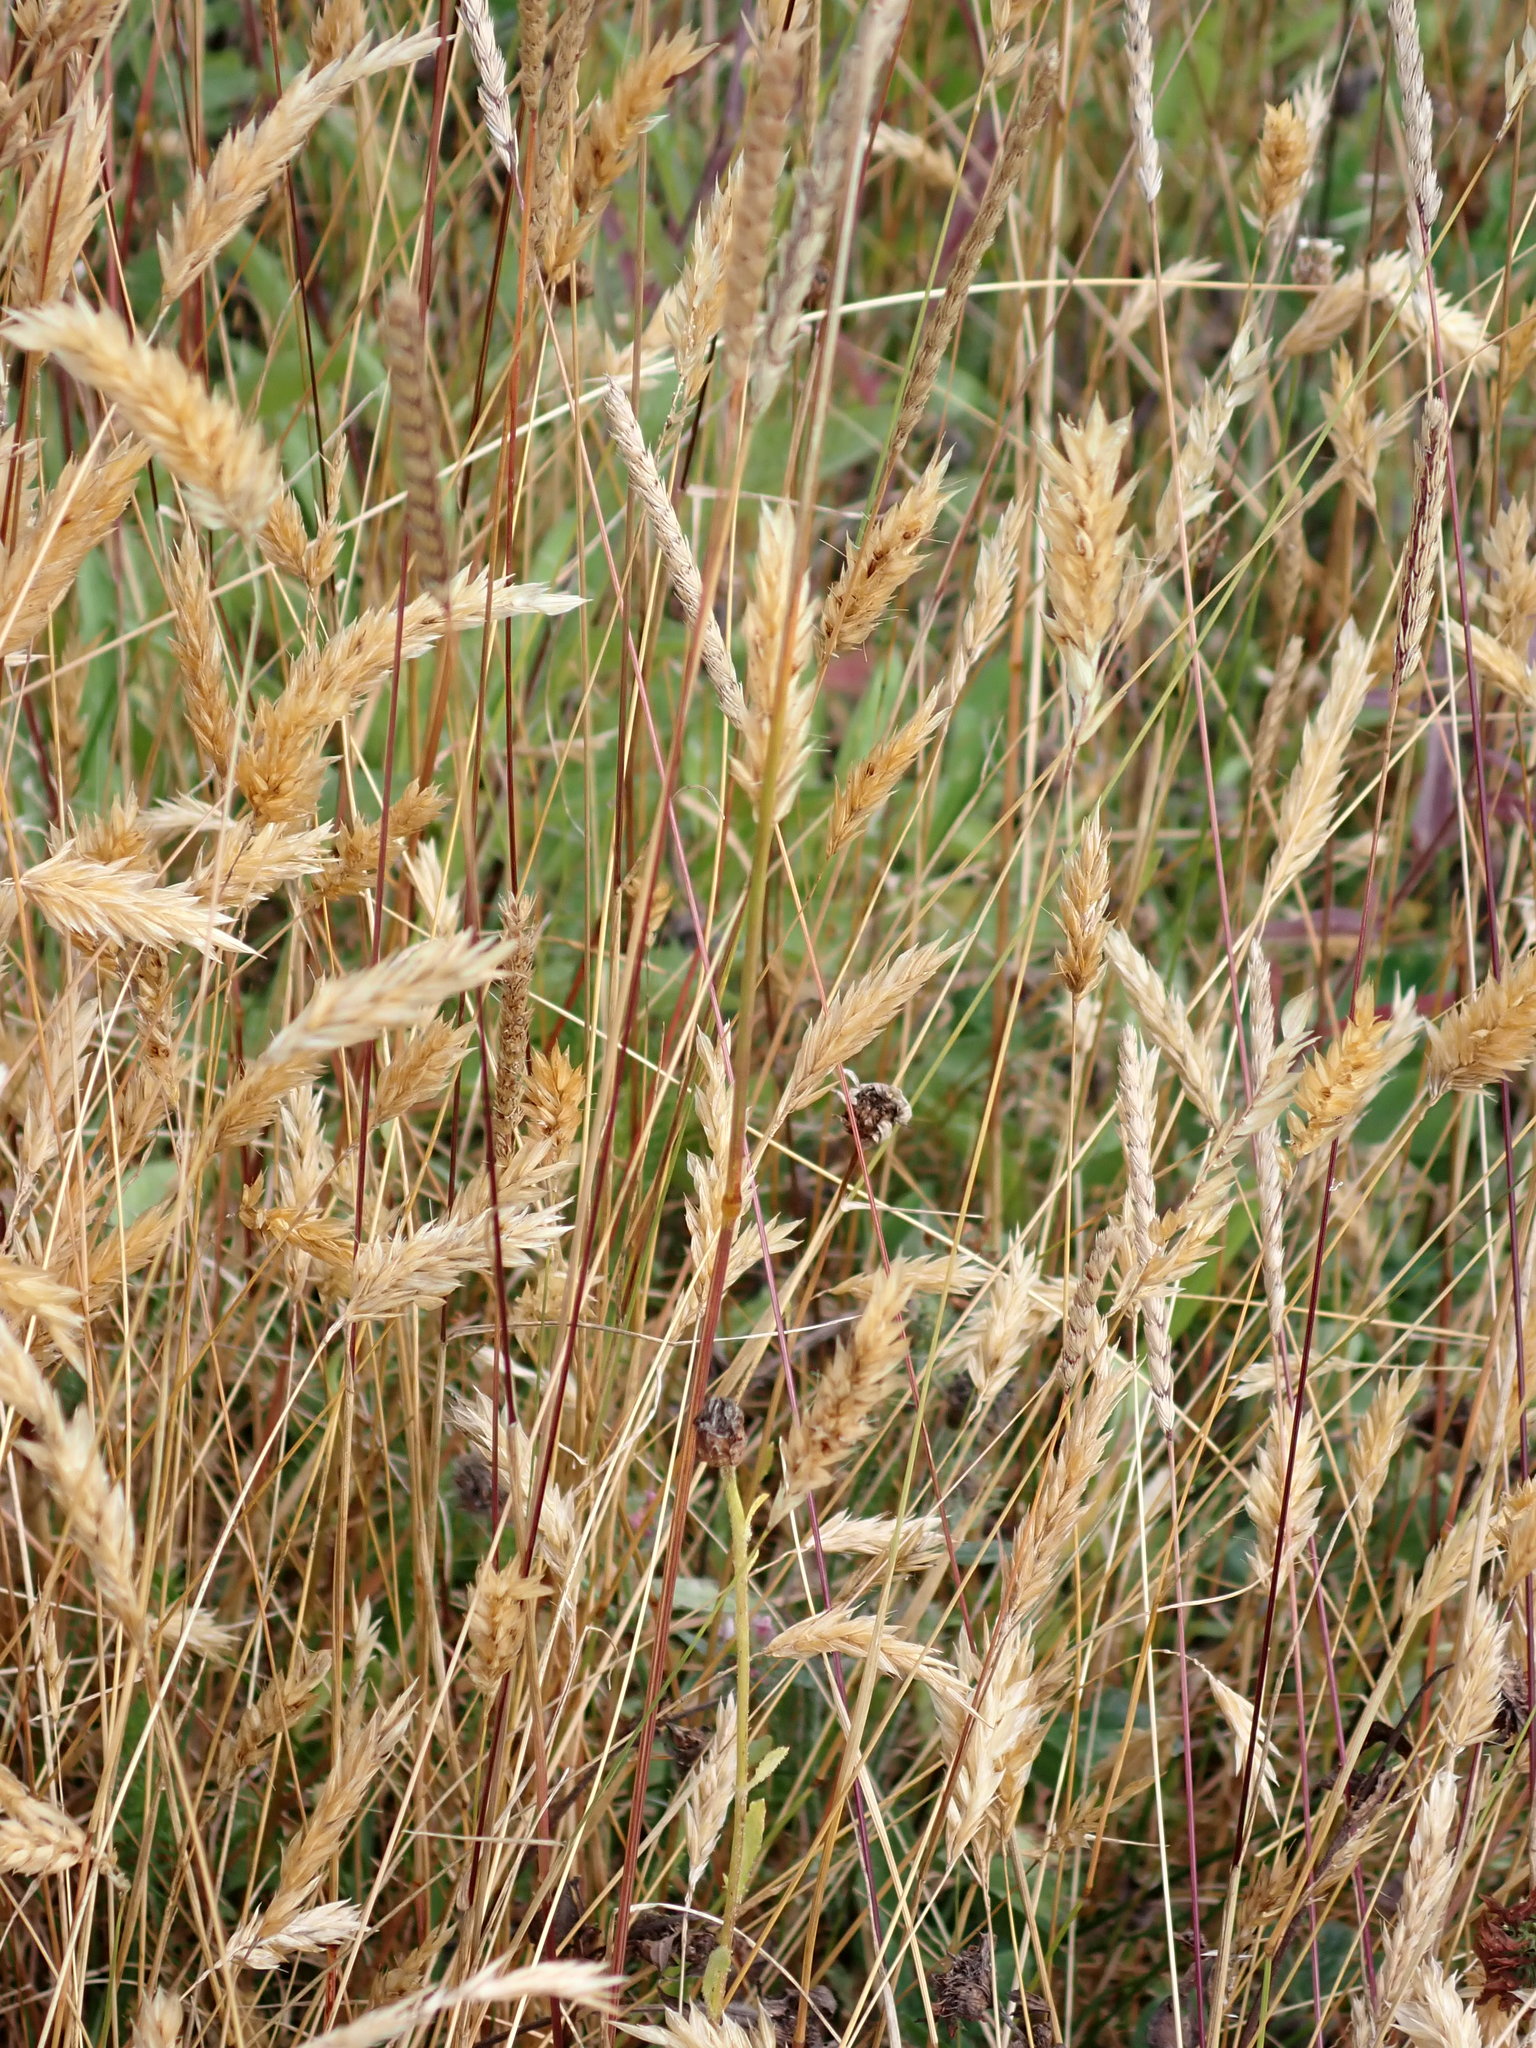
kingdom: Plantae
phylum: Tracheophyta
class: Liliopsida
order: Poales
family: Poaceae
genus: Anthoxanthum
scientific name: Anthoxanthum odoratum
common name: Sweet vernalgrass
